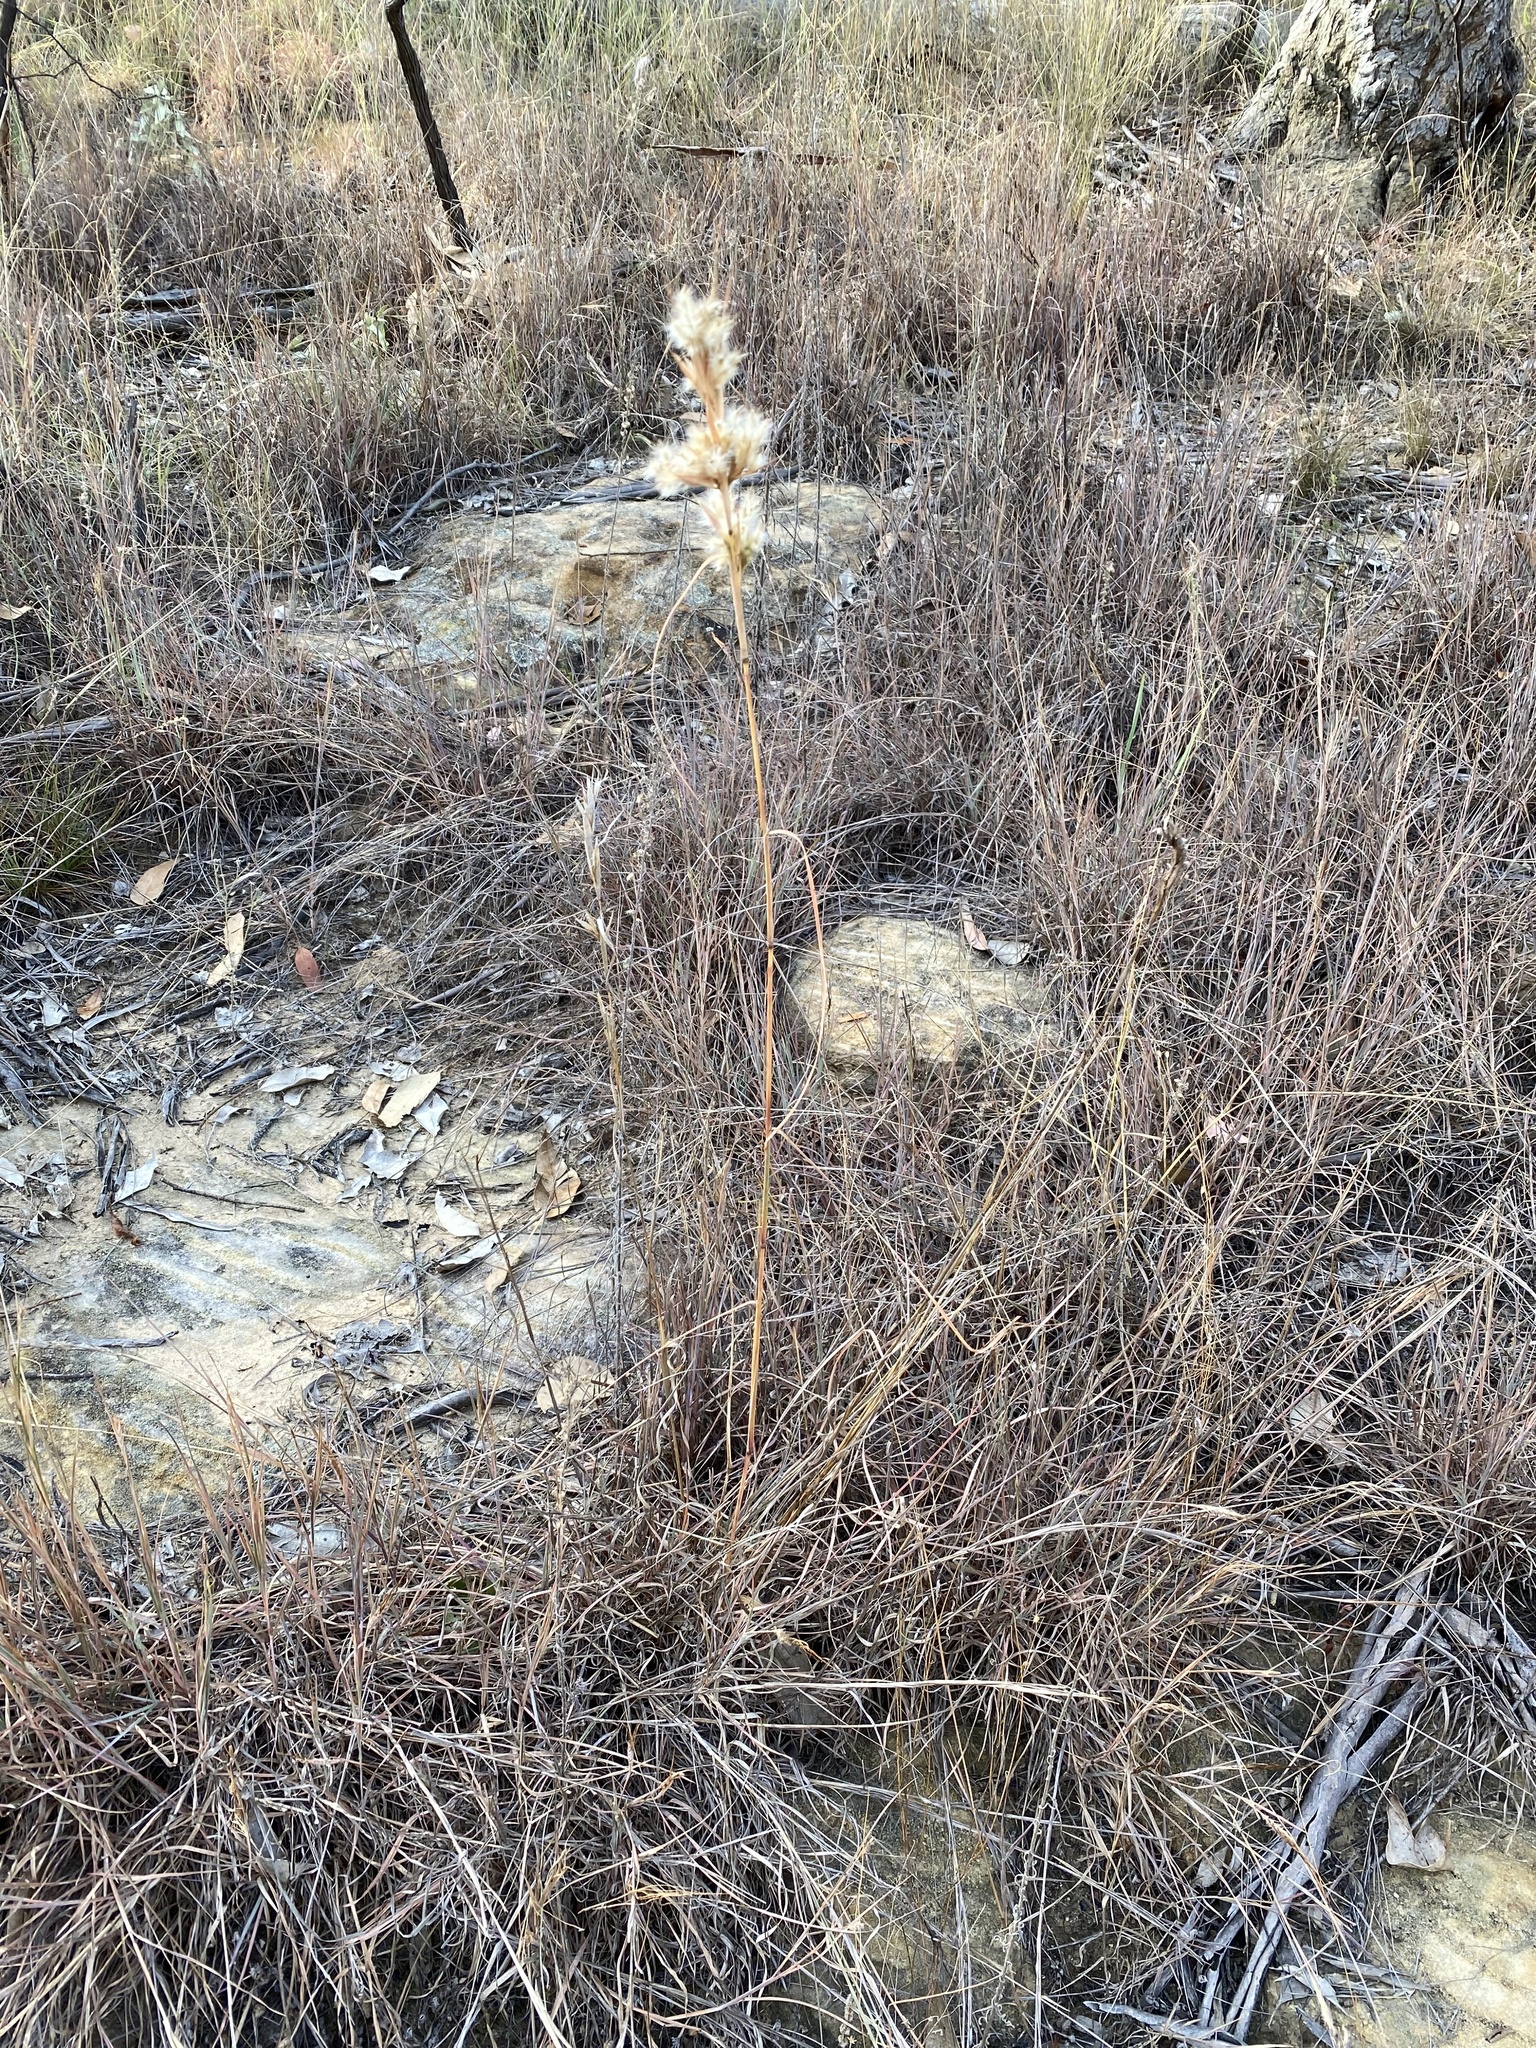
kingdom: Plantae
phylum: Tracheophyta
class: Liliopsida
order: Poales
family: Poaceae
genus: Cymbopogon
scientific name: Cymbopogon obtectus
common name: Silky heads
